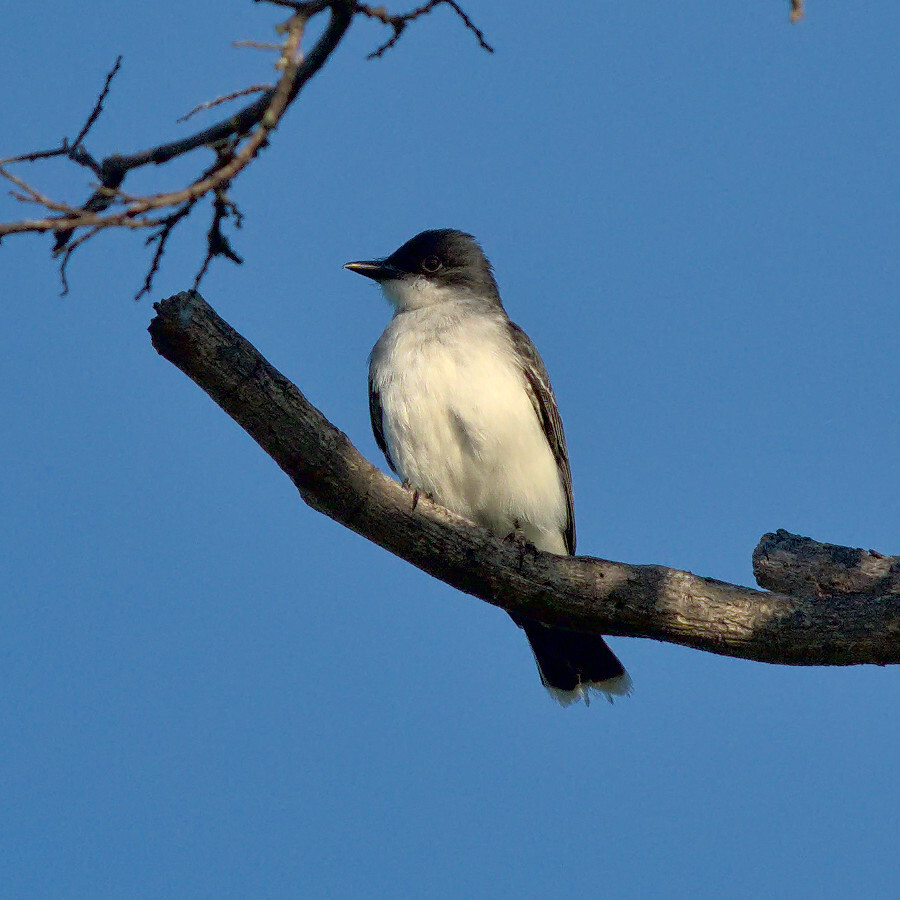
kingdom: Animalia
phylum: Chordata
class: Aves
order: Passeriformes
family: Tyrannidae
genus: Tyrannus
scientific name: Tyrannus tyrannus
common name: Eastern kingbird
